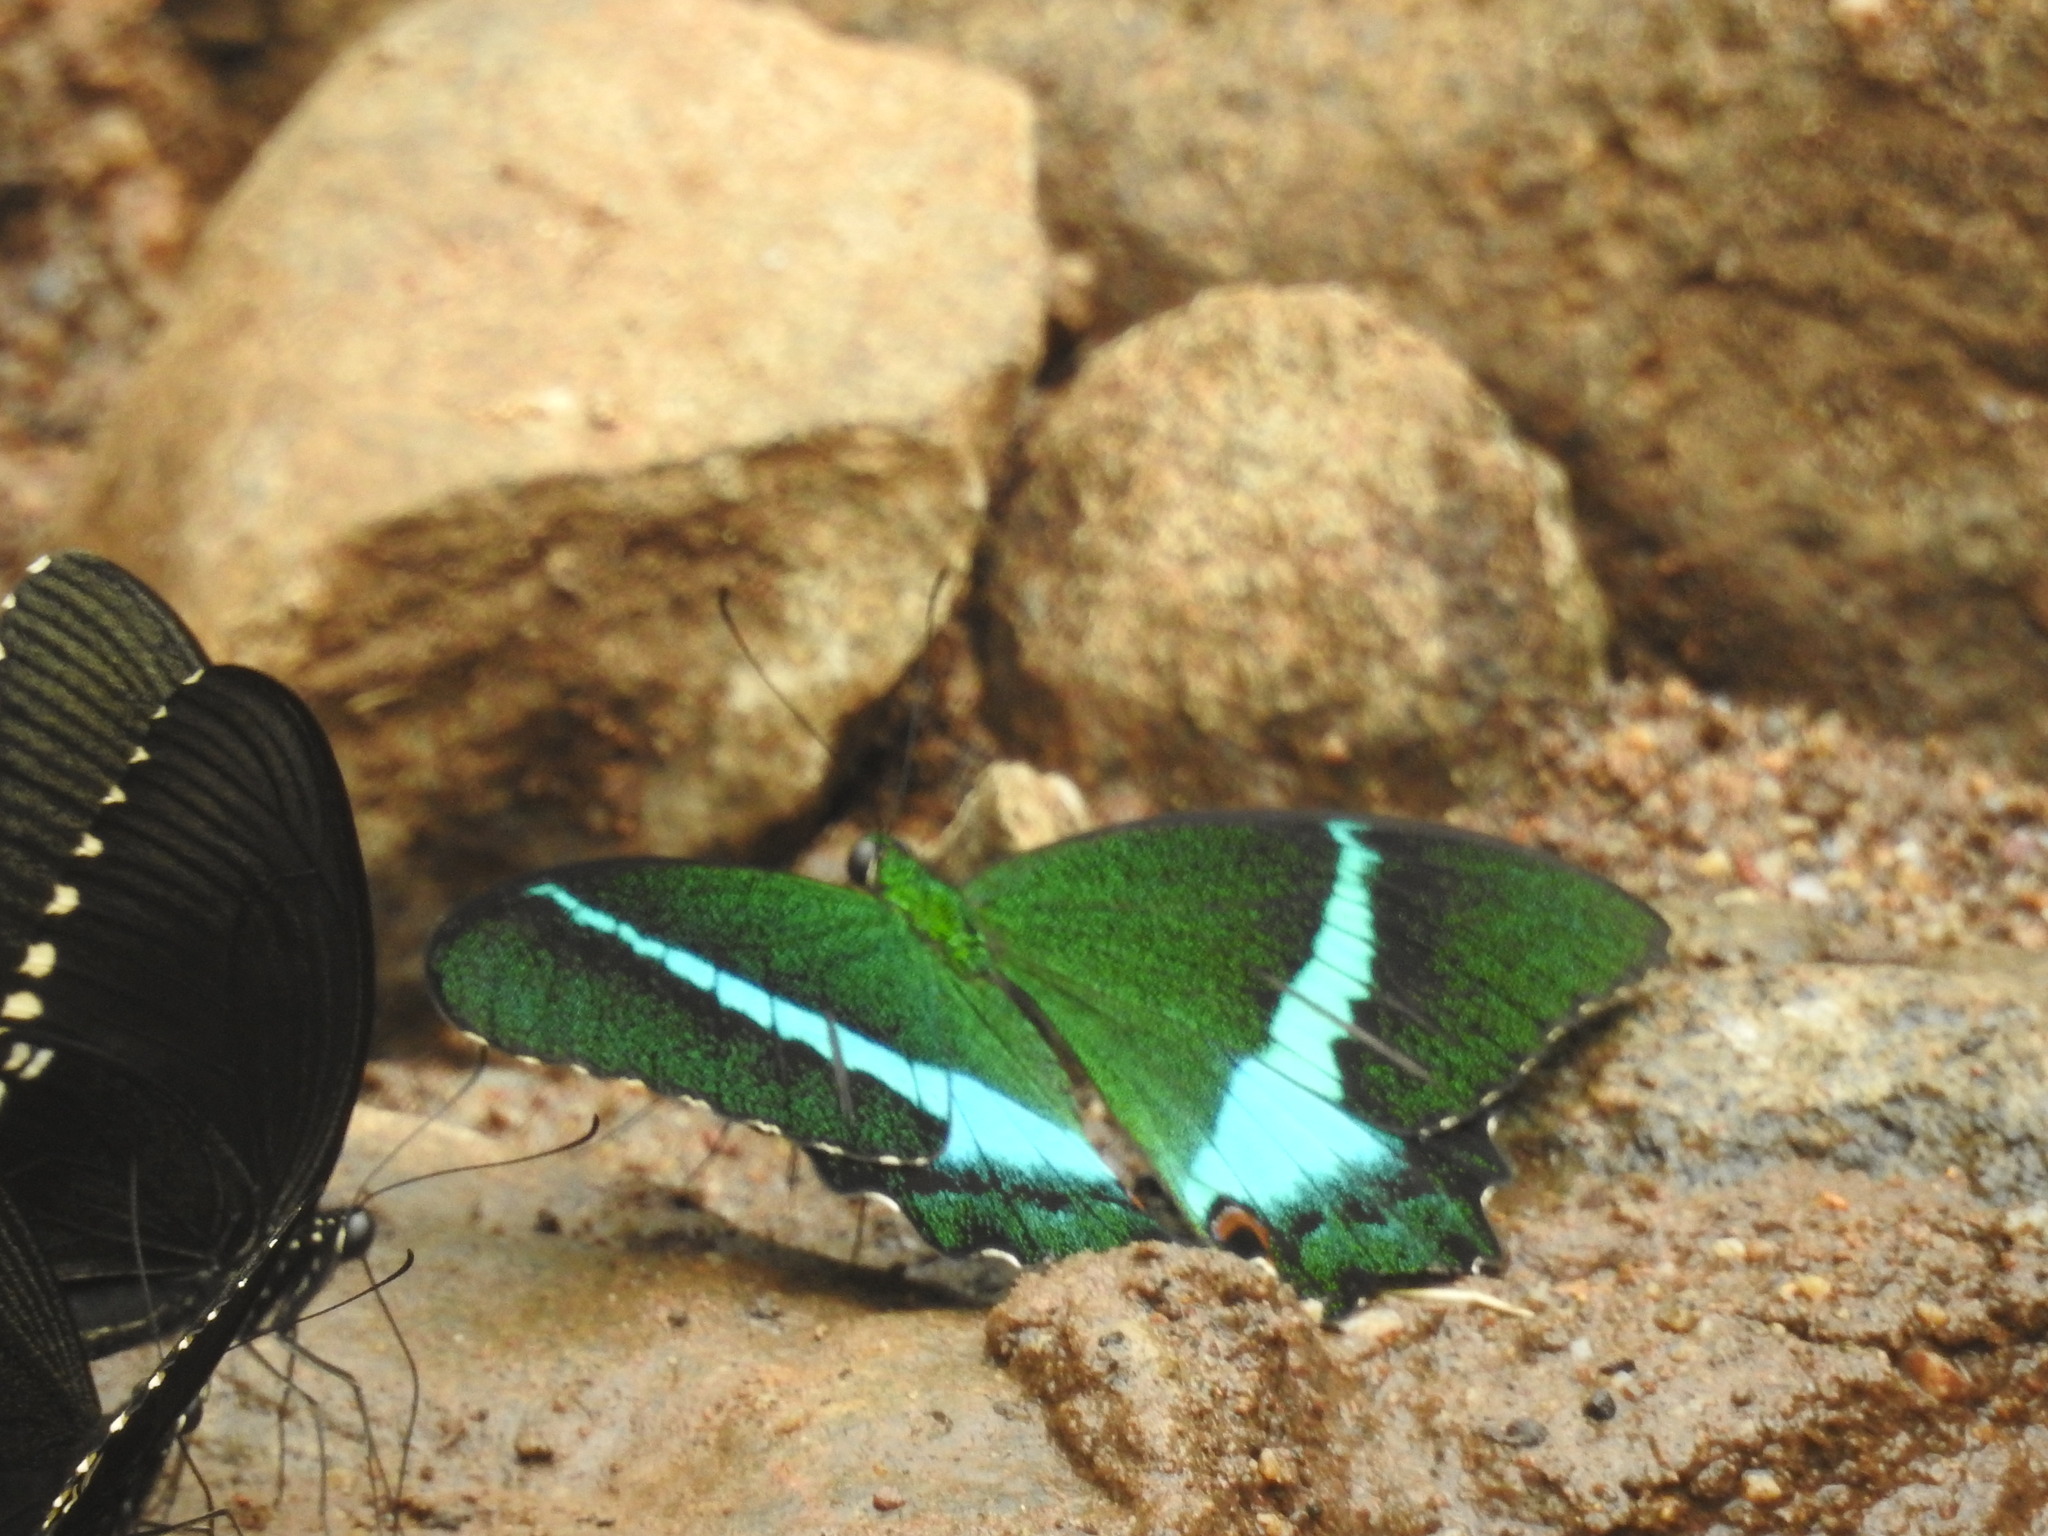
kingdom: Animalia
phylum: Arthropoda
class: Insecta
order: Lepidoptera
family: Papilionidae
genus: Papilio
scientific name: Papilio crino
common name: Common banded peacock
